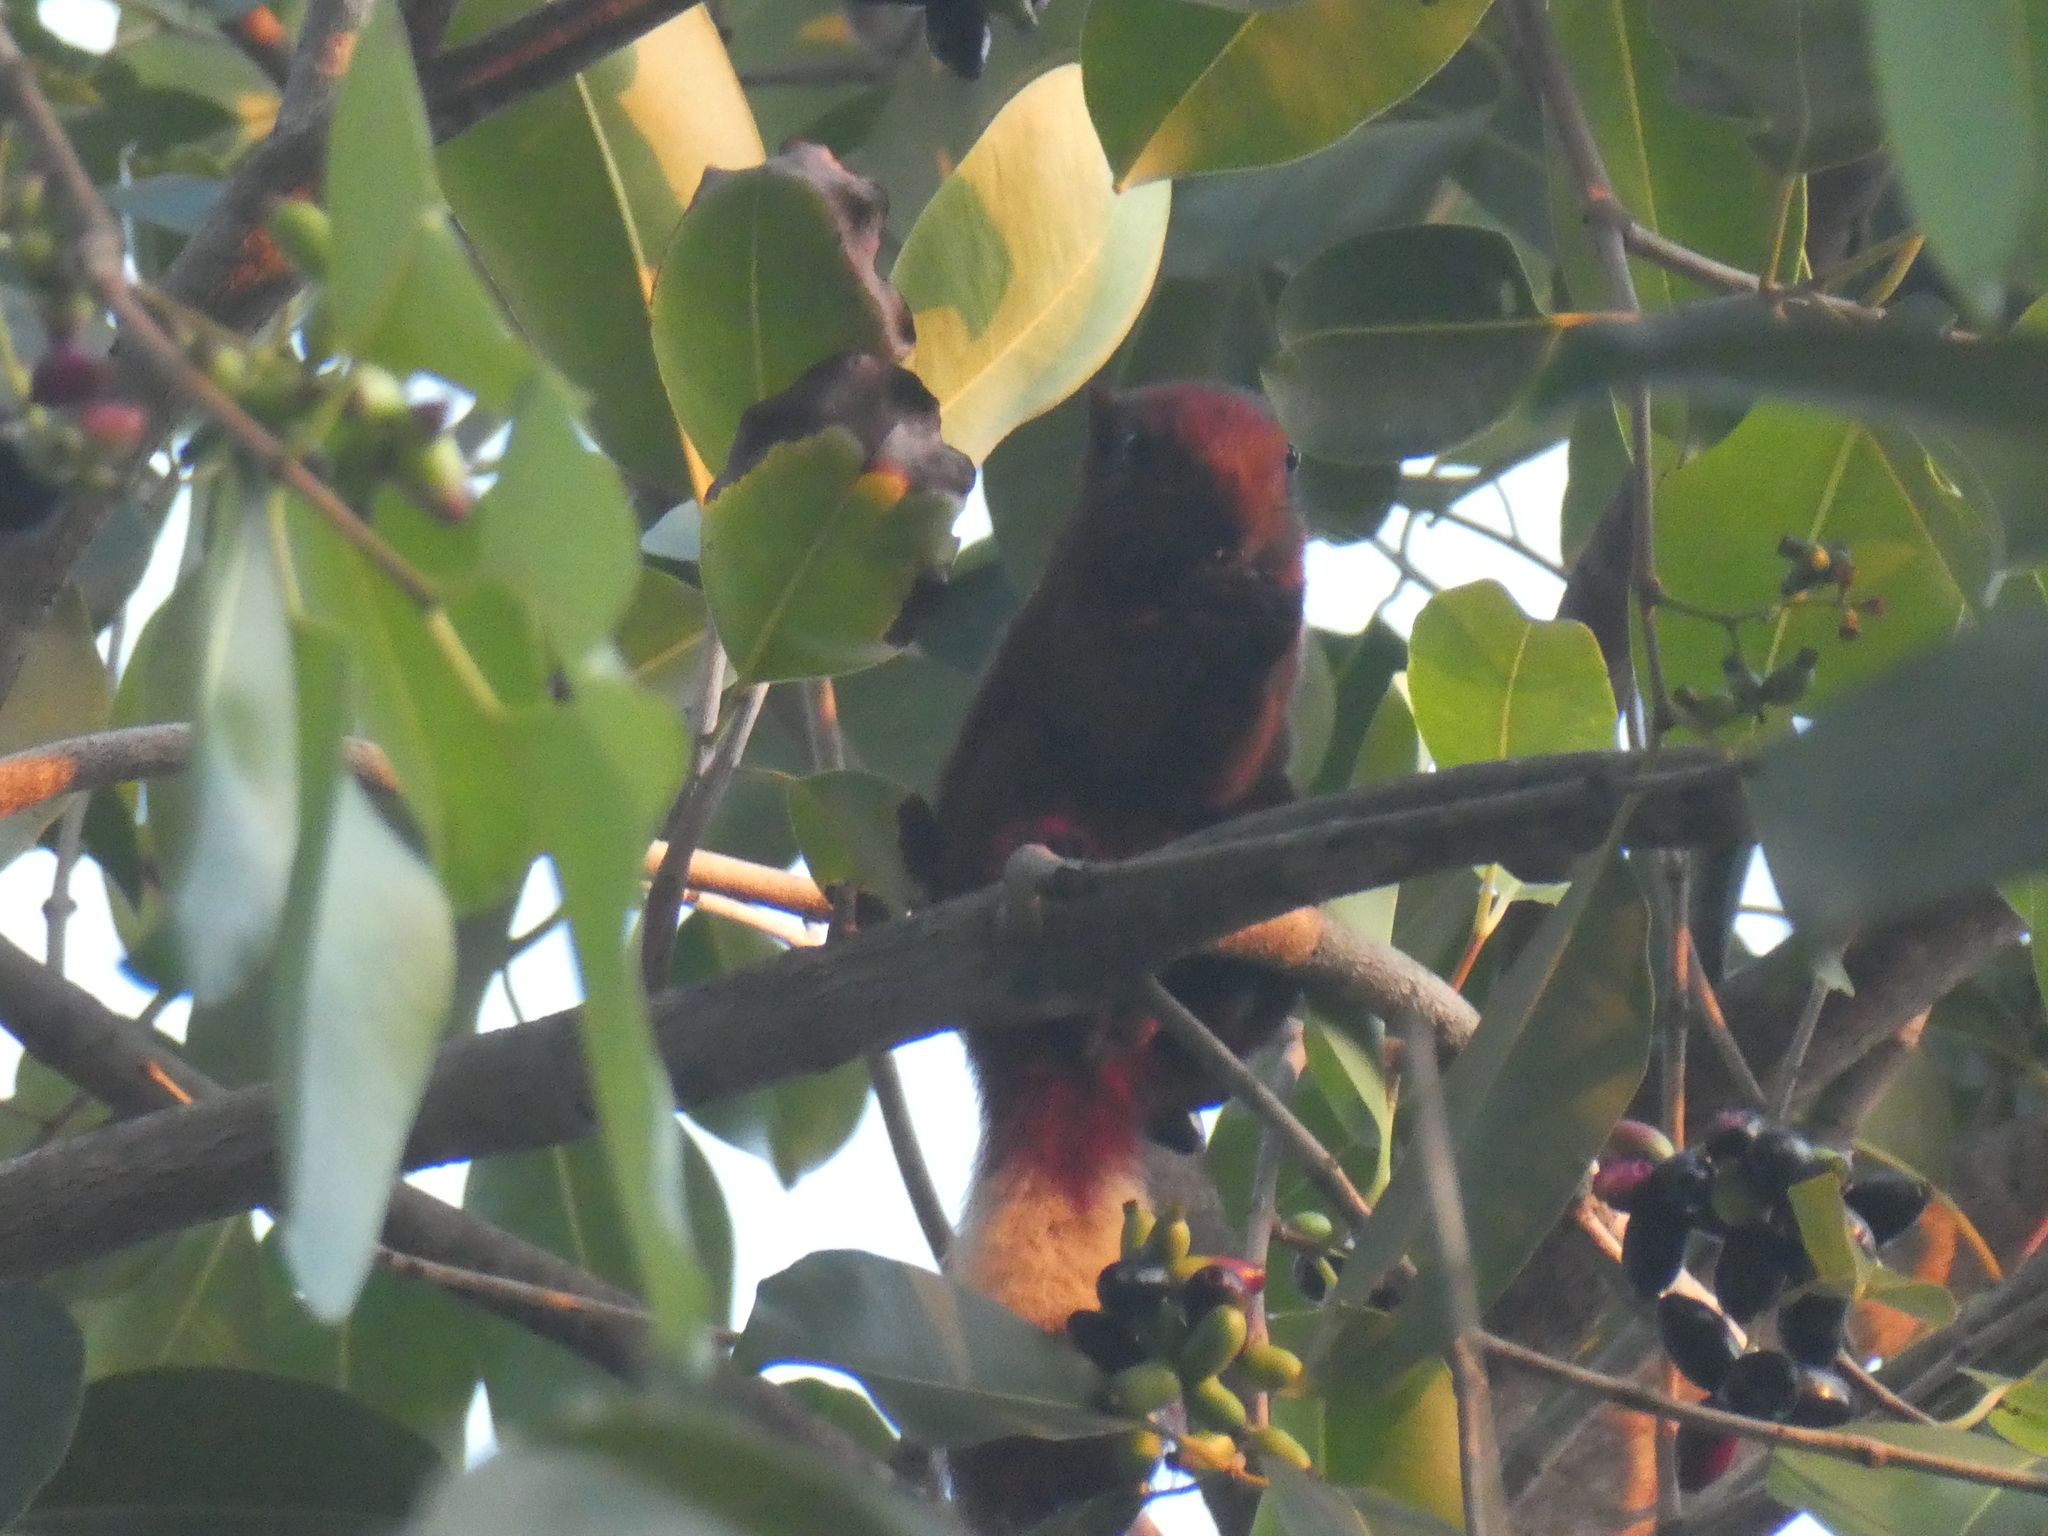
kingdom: Animalia
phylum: Chordata
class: Mammalia
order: Rodentia
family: Sciuridae
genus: Callosciurus
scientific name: Callosciurus finlaysonii
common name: Finlayson's squirrel
